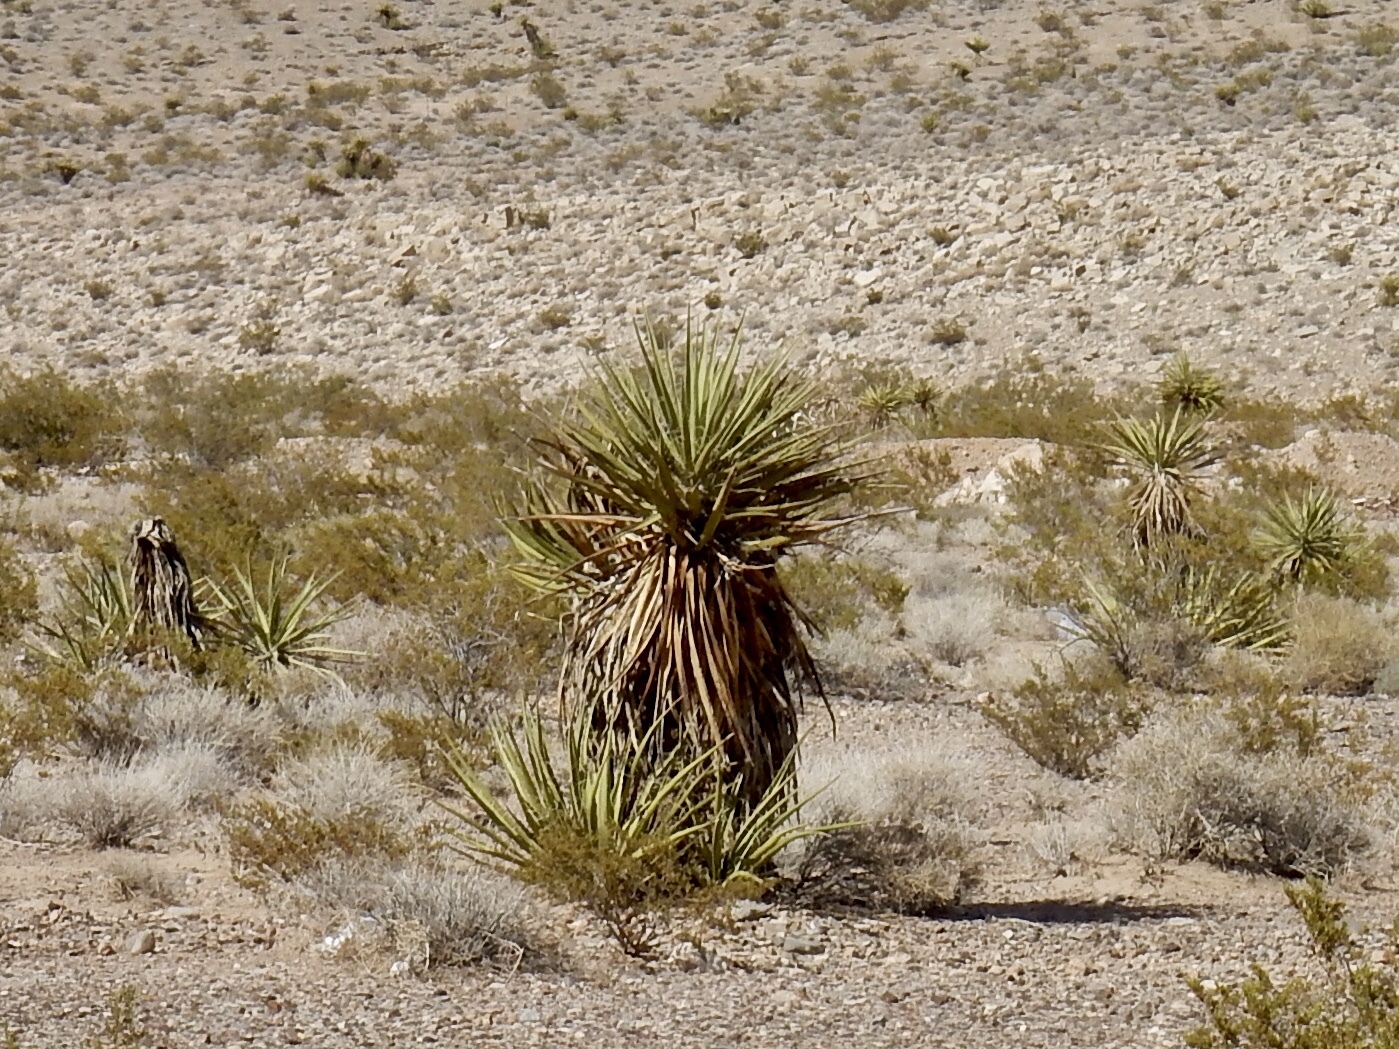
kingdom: Plantae
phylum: Tracheophyta
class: Liliopsida
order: Asparagales
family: Asparagaceae
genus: Yucca
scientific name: Yucca schidigera
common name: Mojave yucca
